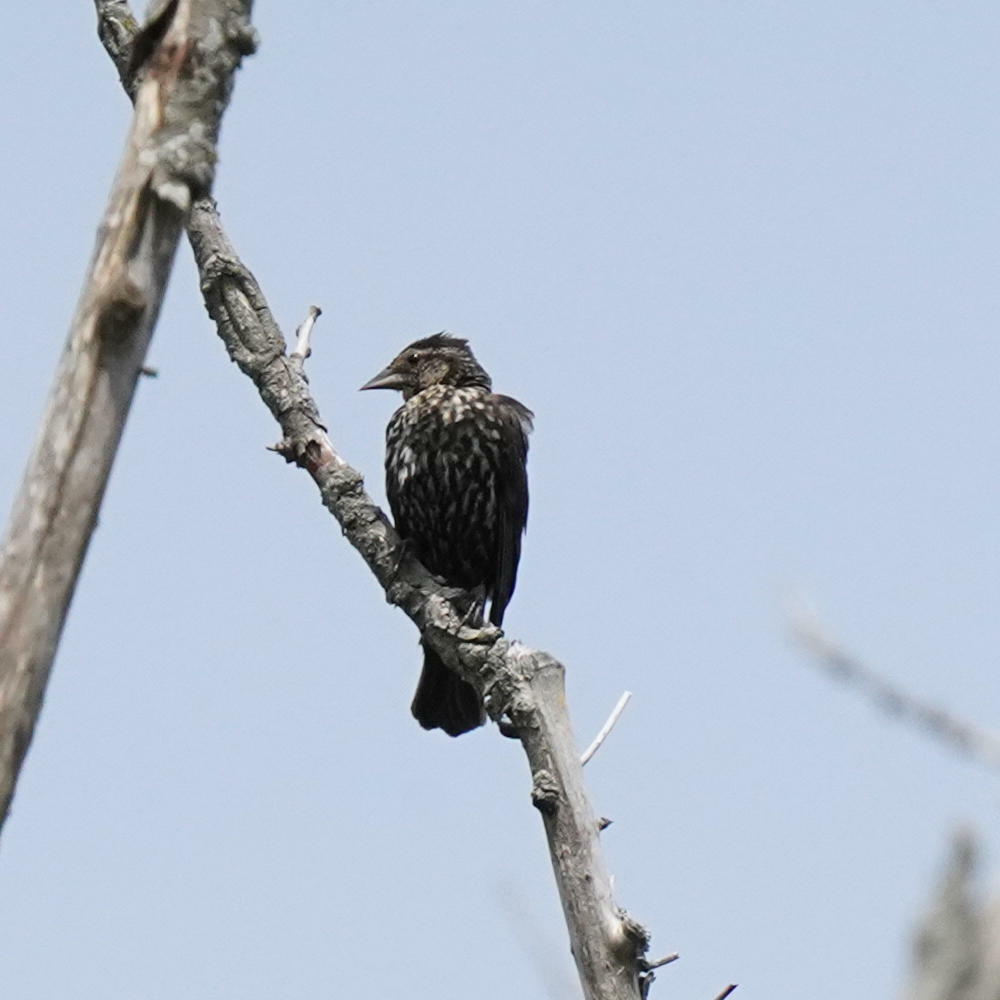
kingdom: Animalia
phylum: Chordata
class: Aves
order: Passeriformes
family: Icteridae
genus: Agelaius
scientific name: Agelaius phoeniceus
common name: Red-winged blackbird
